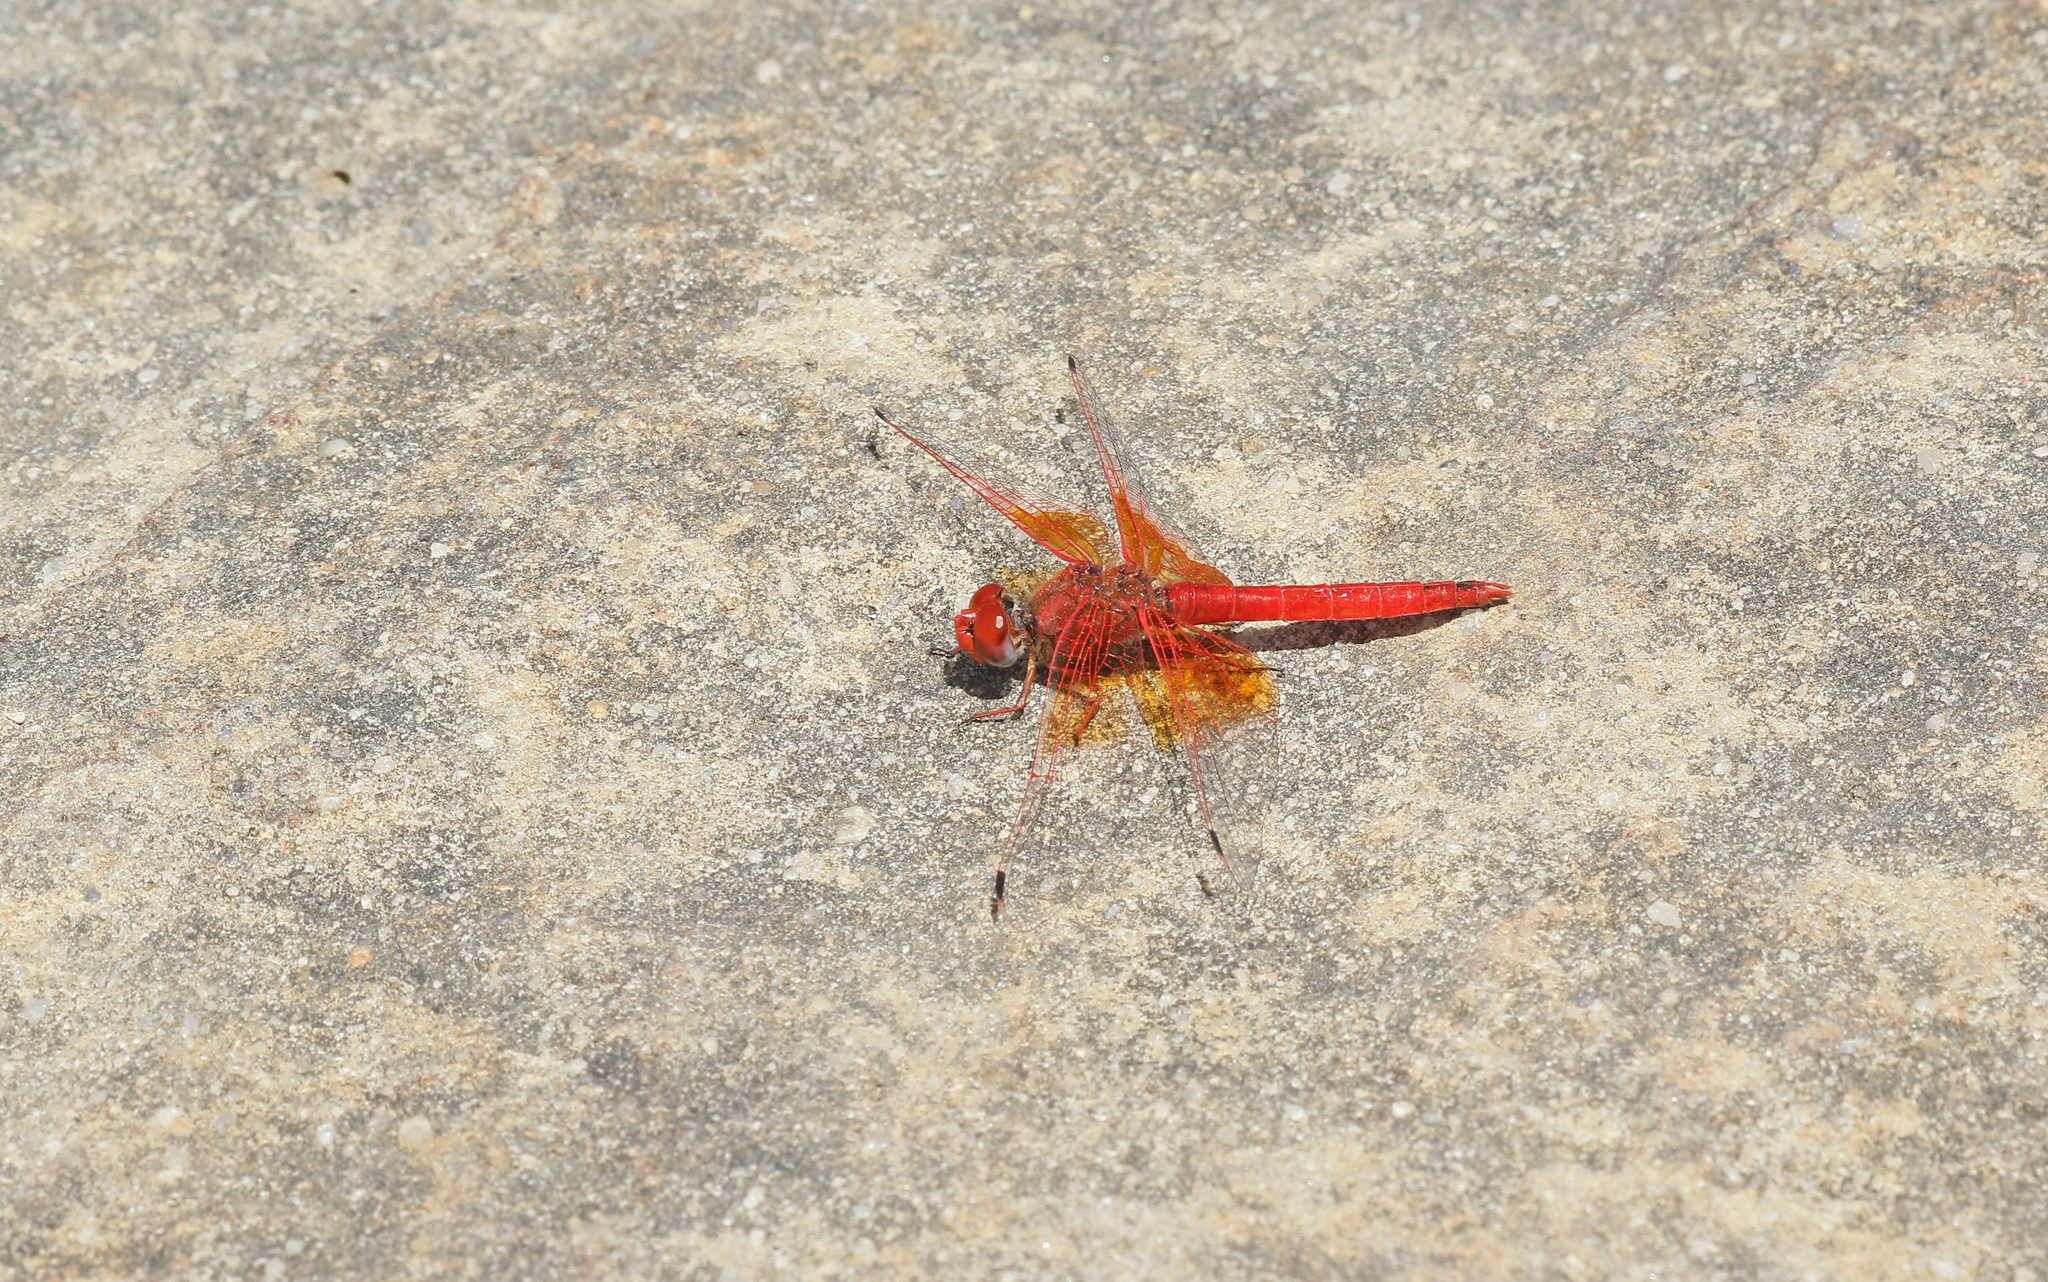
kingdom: Animalia
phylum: Arthropoda
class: Insecta
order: Odonata
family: Libellulidae
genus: Trithemis
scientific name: Trithemis kirbyi
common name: Kirby's dropwing
